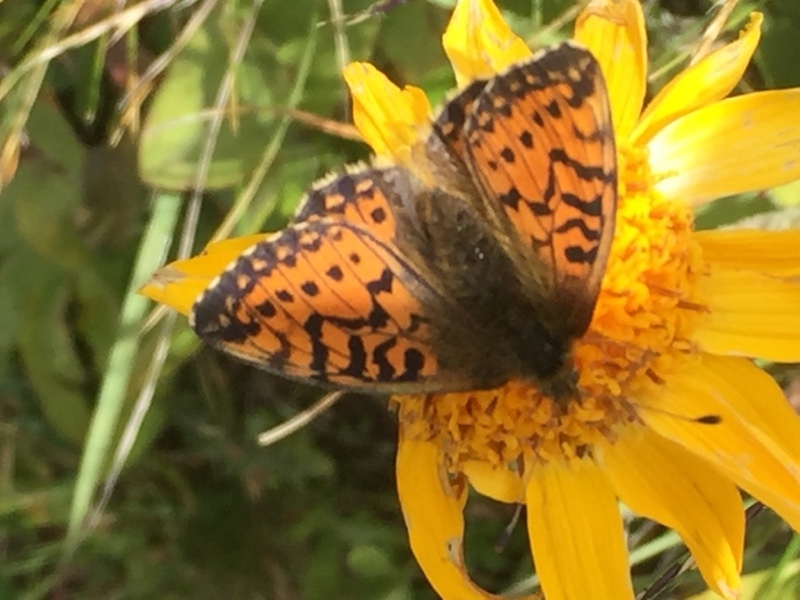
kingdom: Animalia
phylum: Arthropoda
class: Insecta
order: Lepidoptera
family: Nymphalidae
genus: Boloria
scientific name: Boloria pales
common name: Shepherd's fritillary
